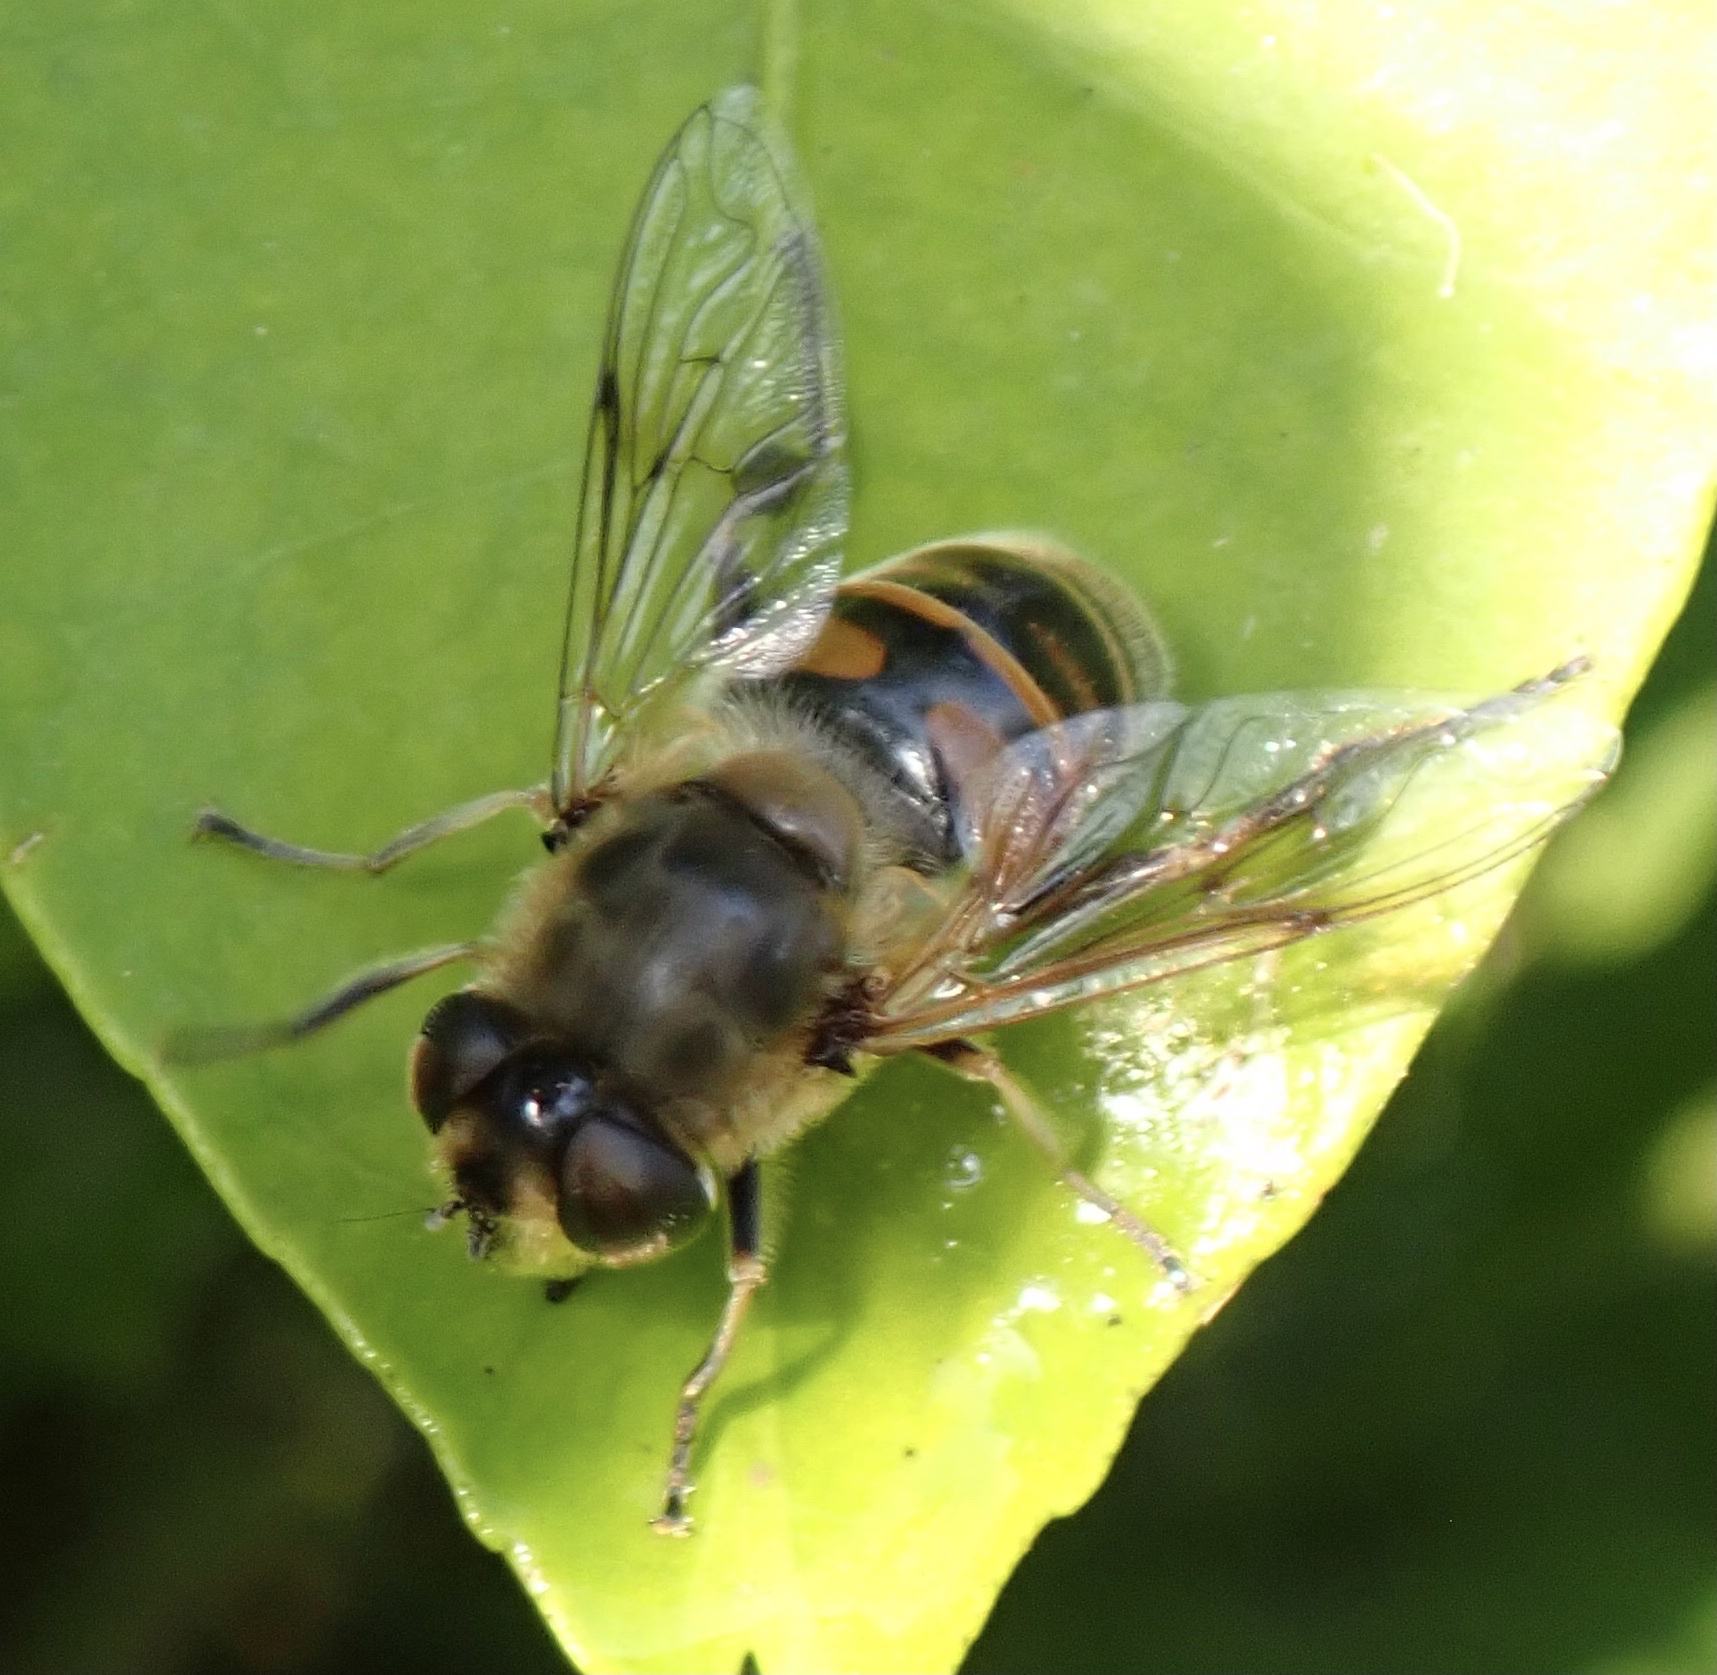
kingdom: Animalia
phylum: Arthropoda
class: Insecta
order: Diptera
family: Syrphidae
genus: Eristalis
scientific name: Eristalis tenax
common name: Drone fly
